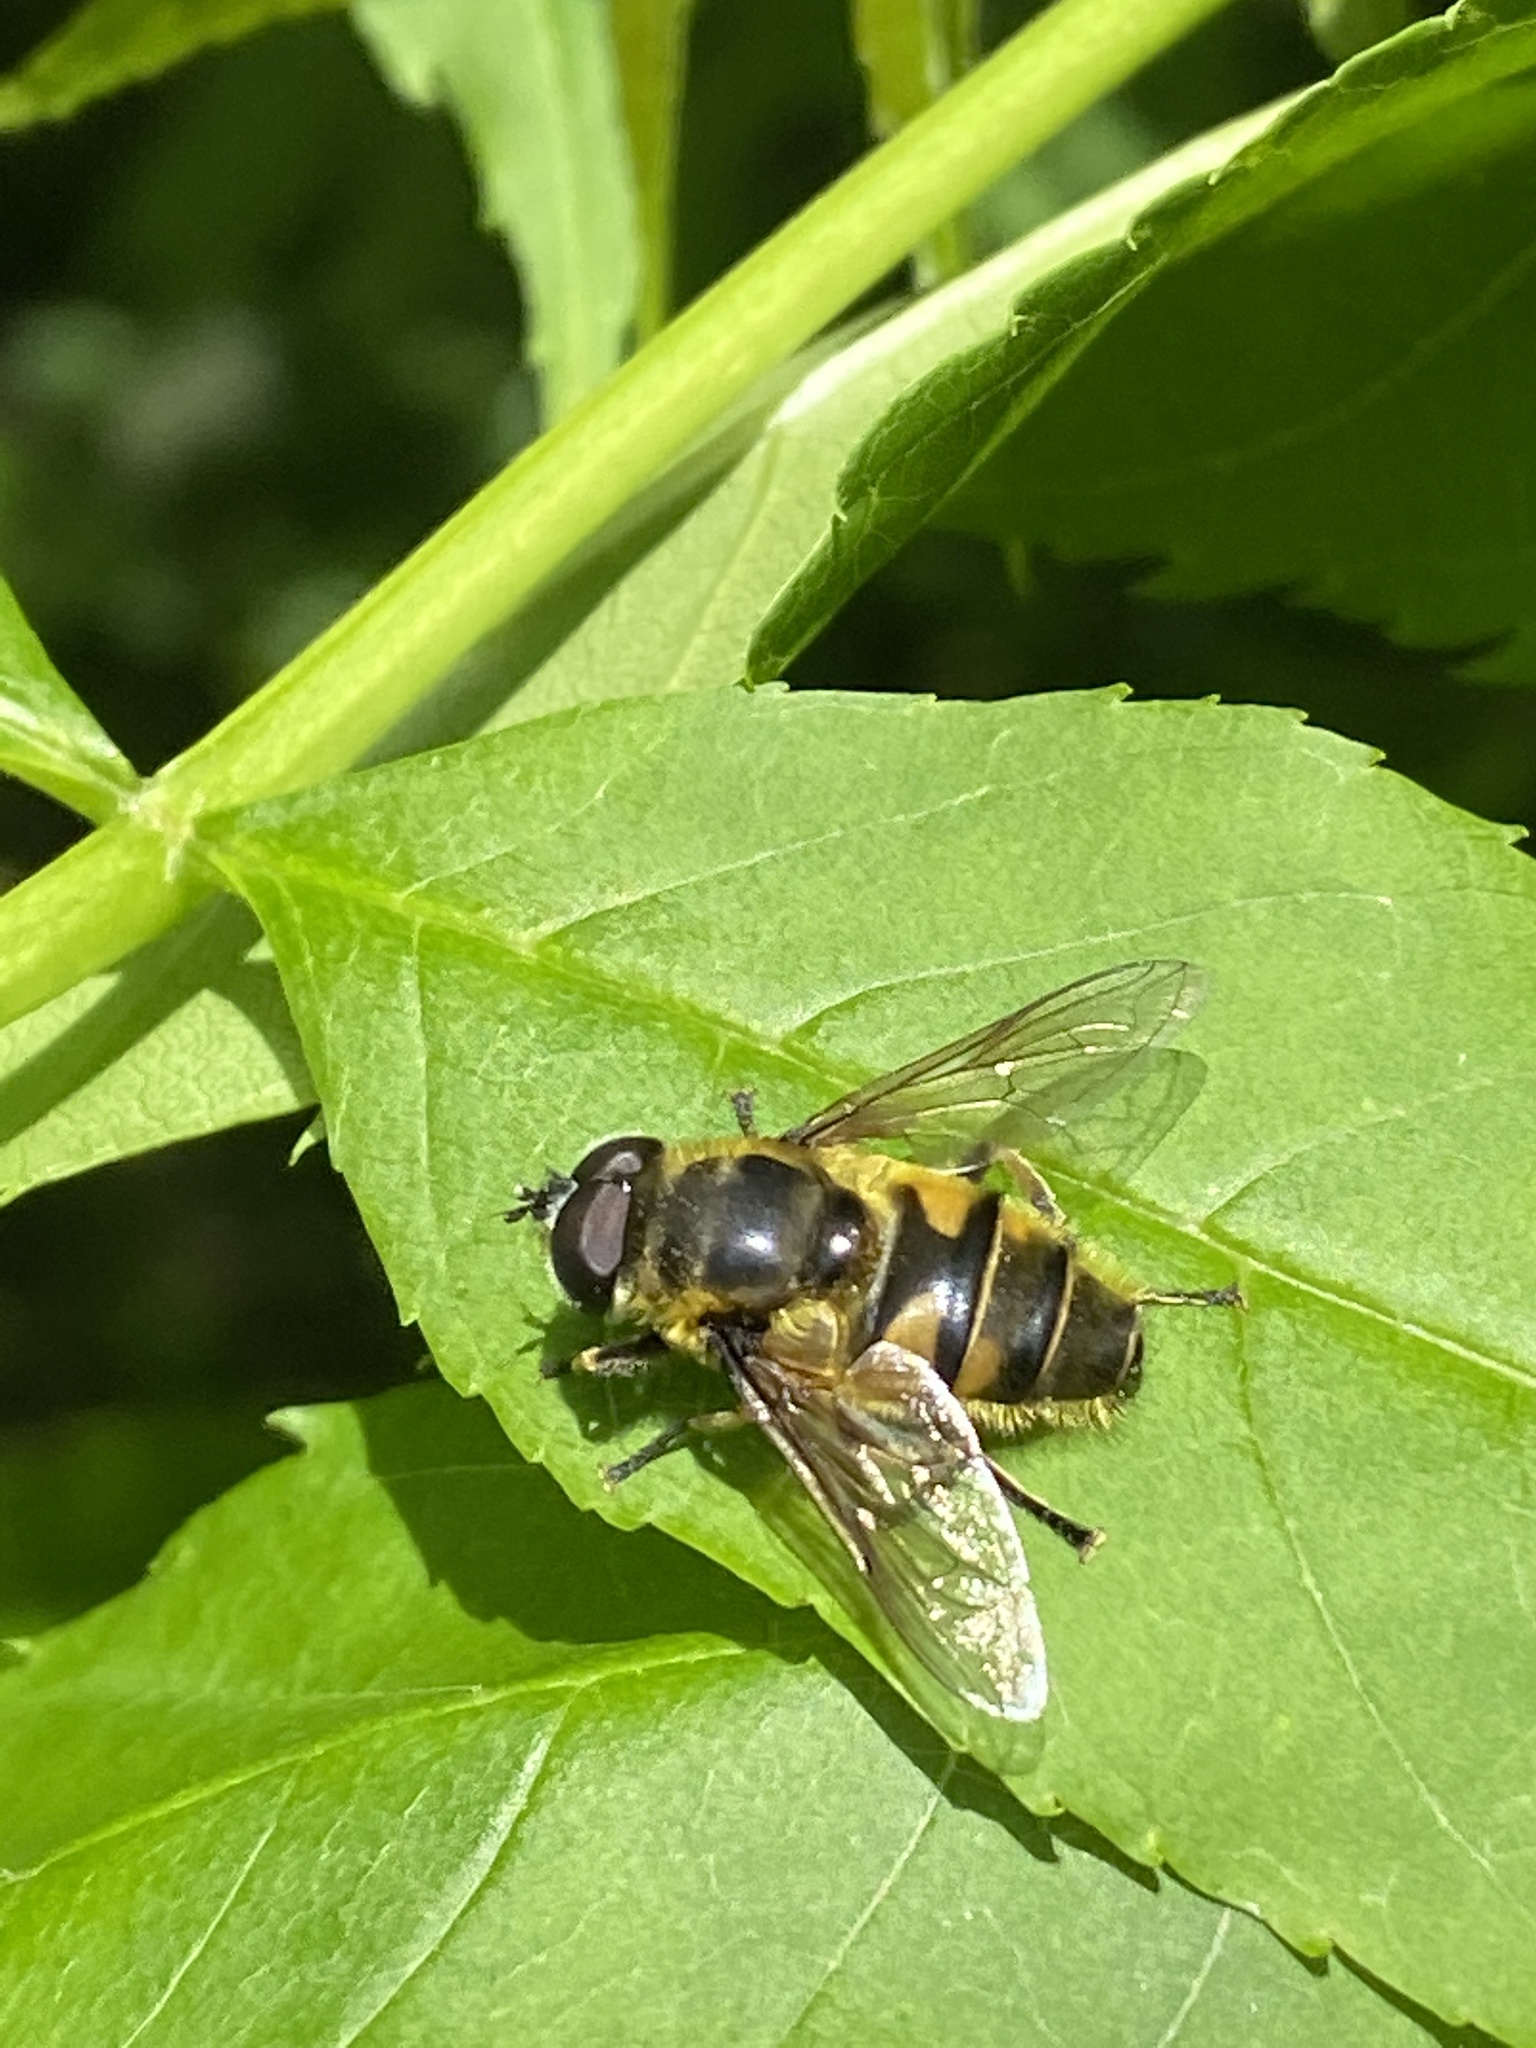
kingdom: Animalia
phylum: Arthropoda
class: Insecta
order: Diptera
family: Syrphidae
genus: Myathropa
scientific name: Myathropa florea
